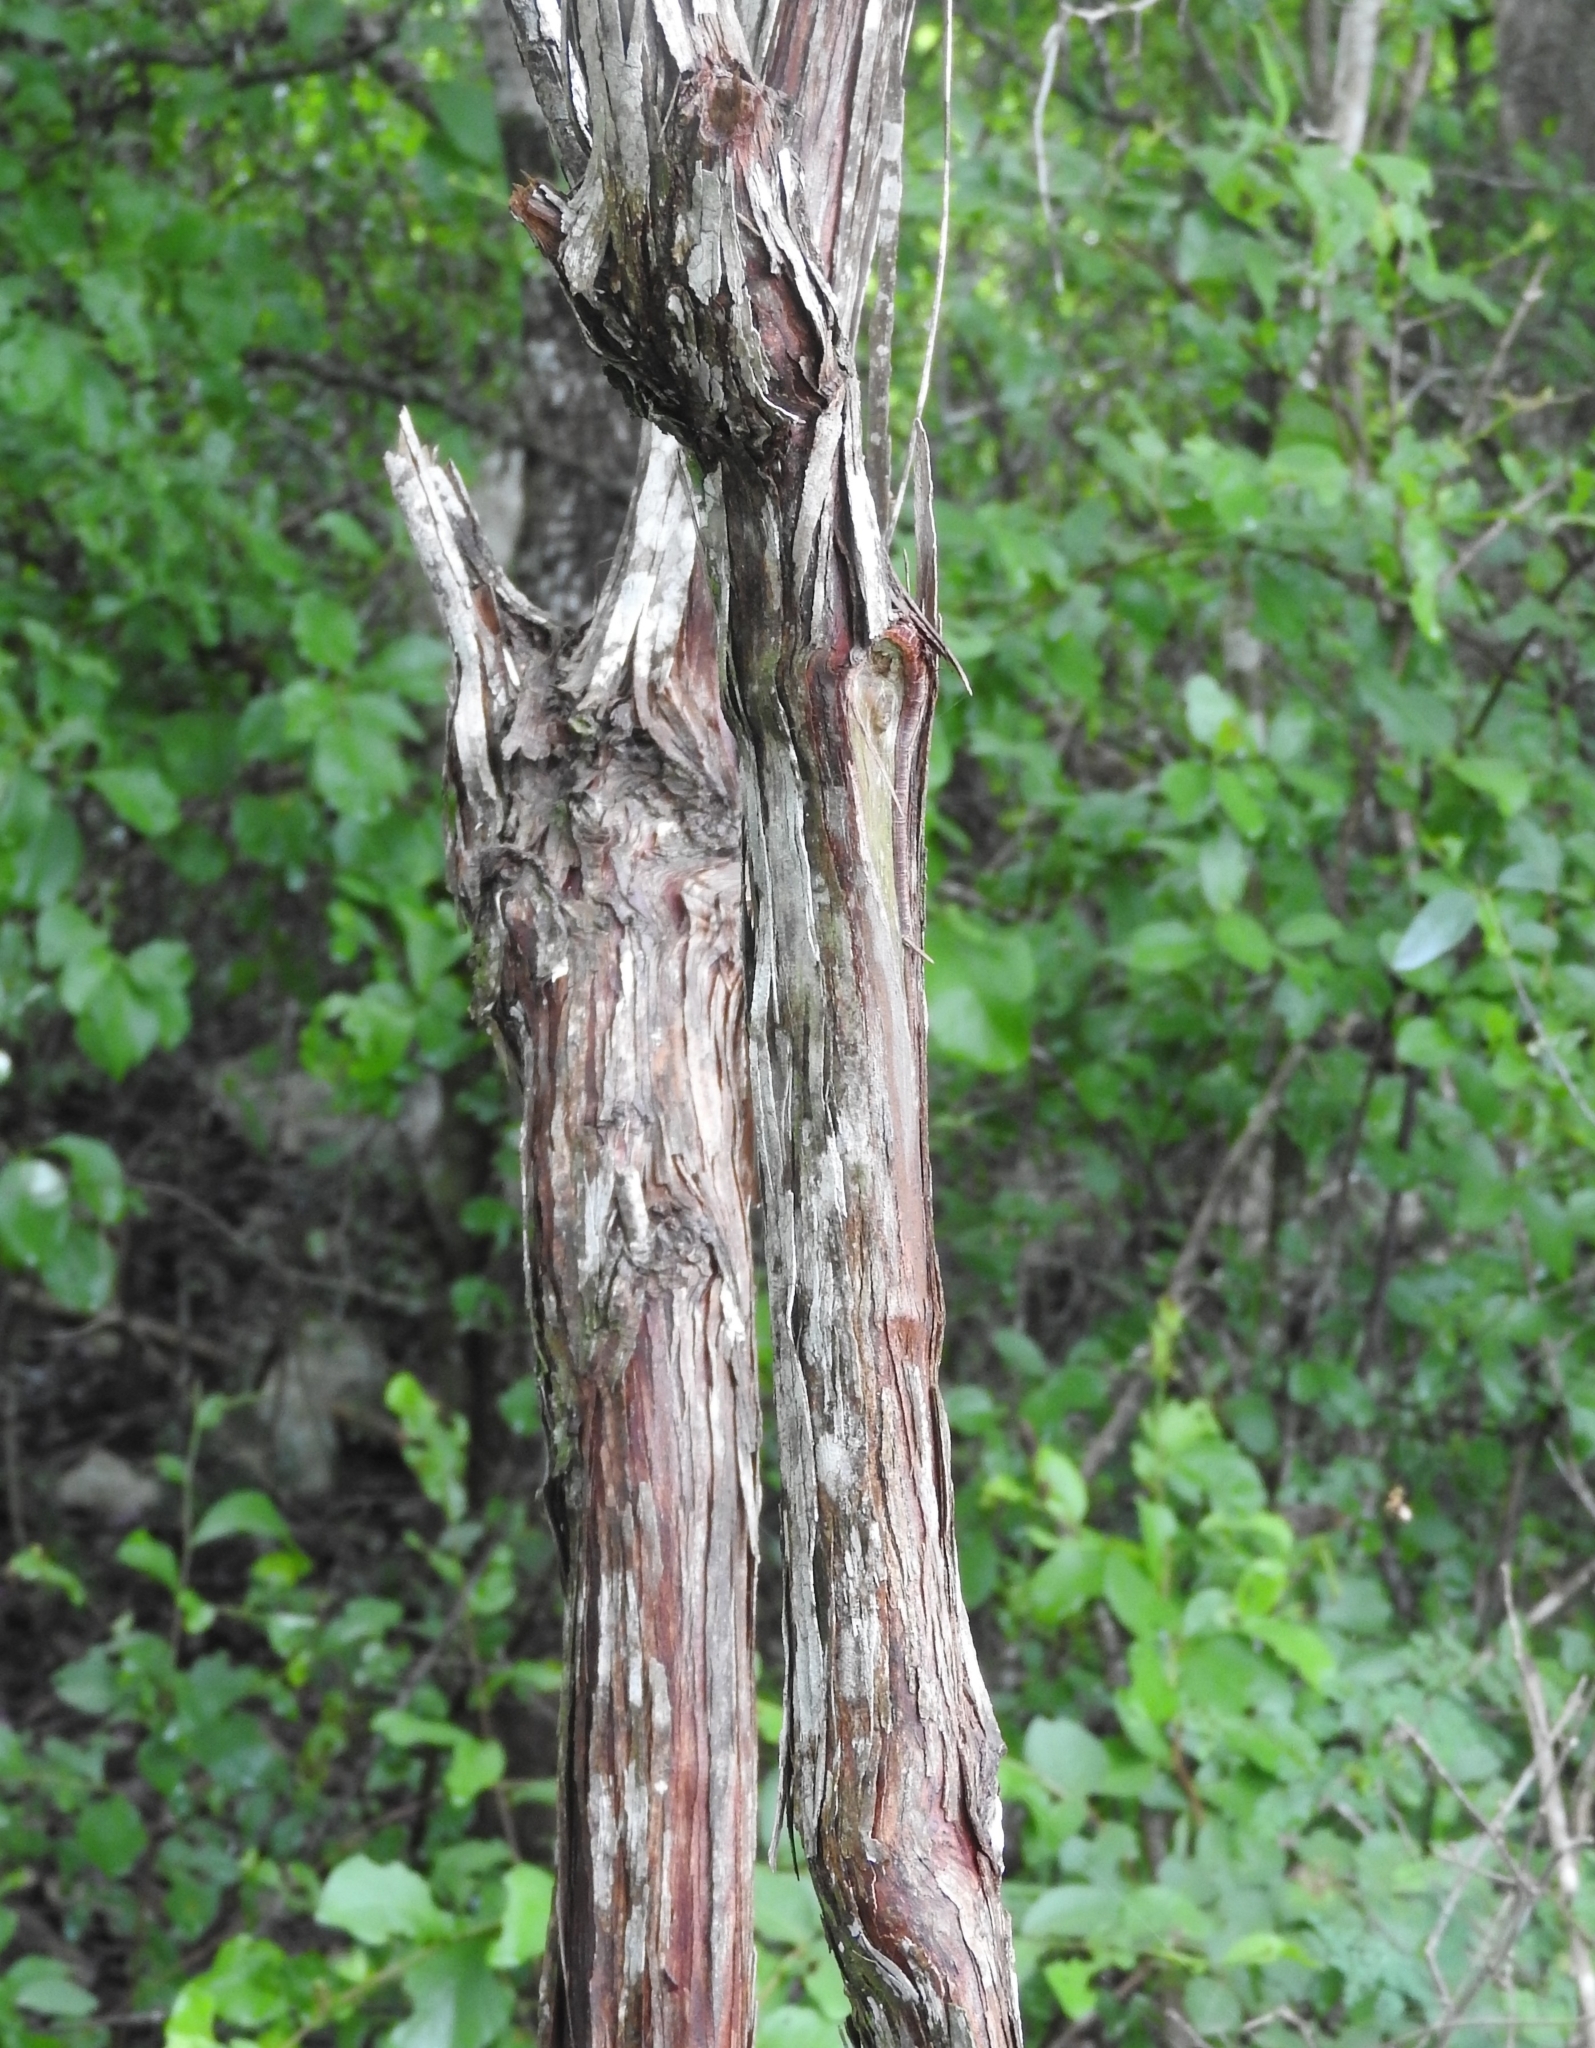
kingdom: Plantae
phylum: Tracheophyta
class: Magnoliopsida
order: Caryophyllales
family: Polygonaceae
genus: Gymnopodium
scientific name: Gymnopodium floribundum
